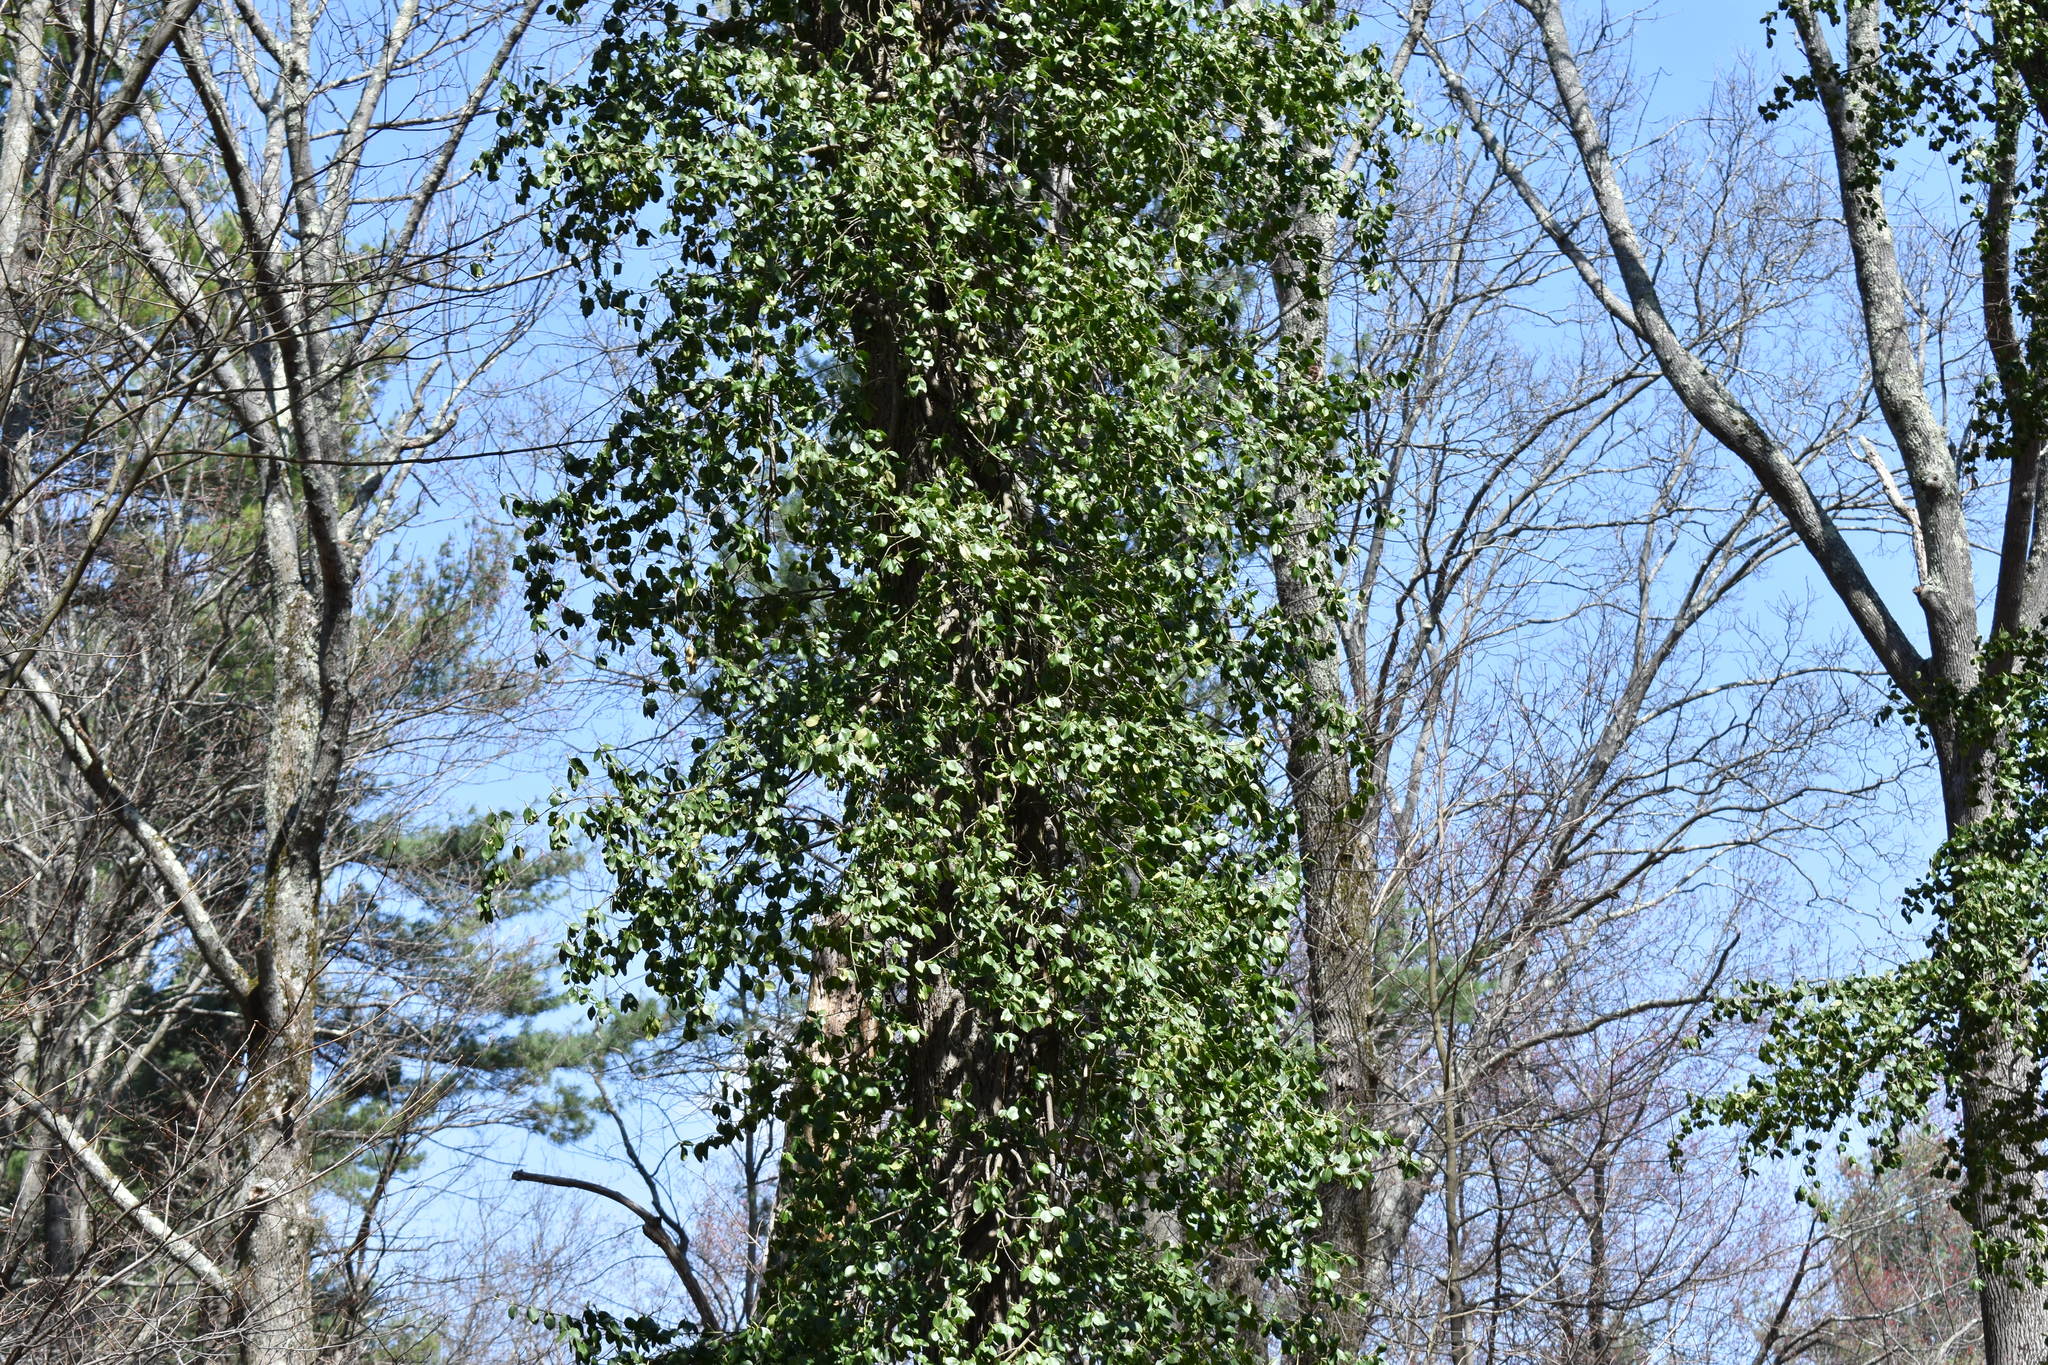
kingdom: Plantae
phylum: Tracheophyta
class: Magnoliopsida
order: Celastrales
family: Celastraceae
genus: Euonymus
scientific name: Euonymus fortunei
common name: Climbing euonymus
